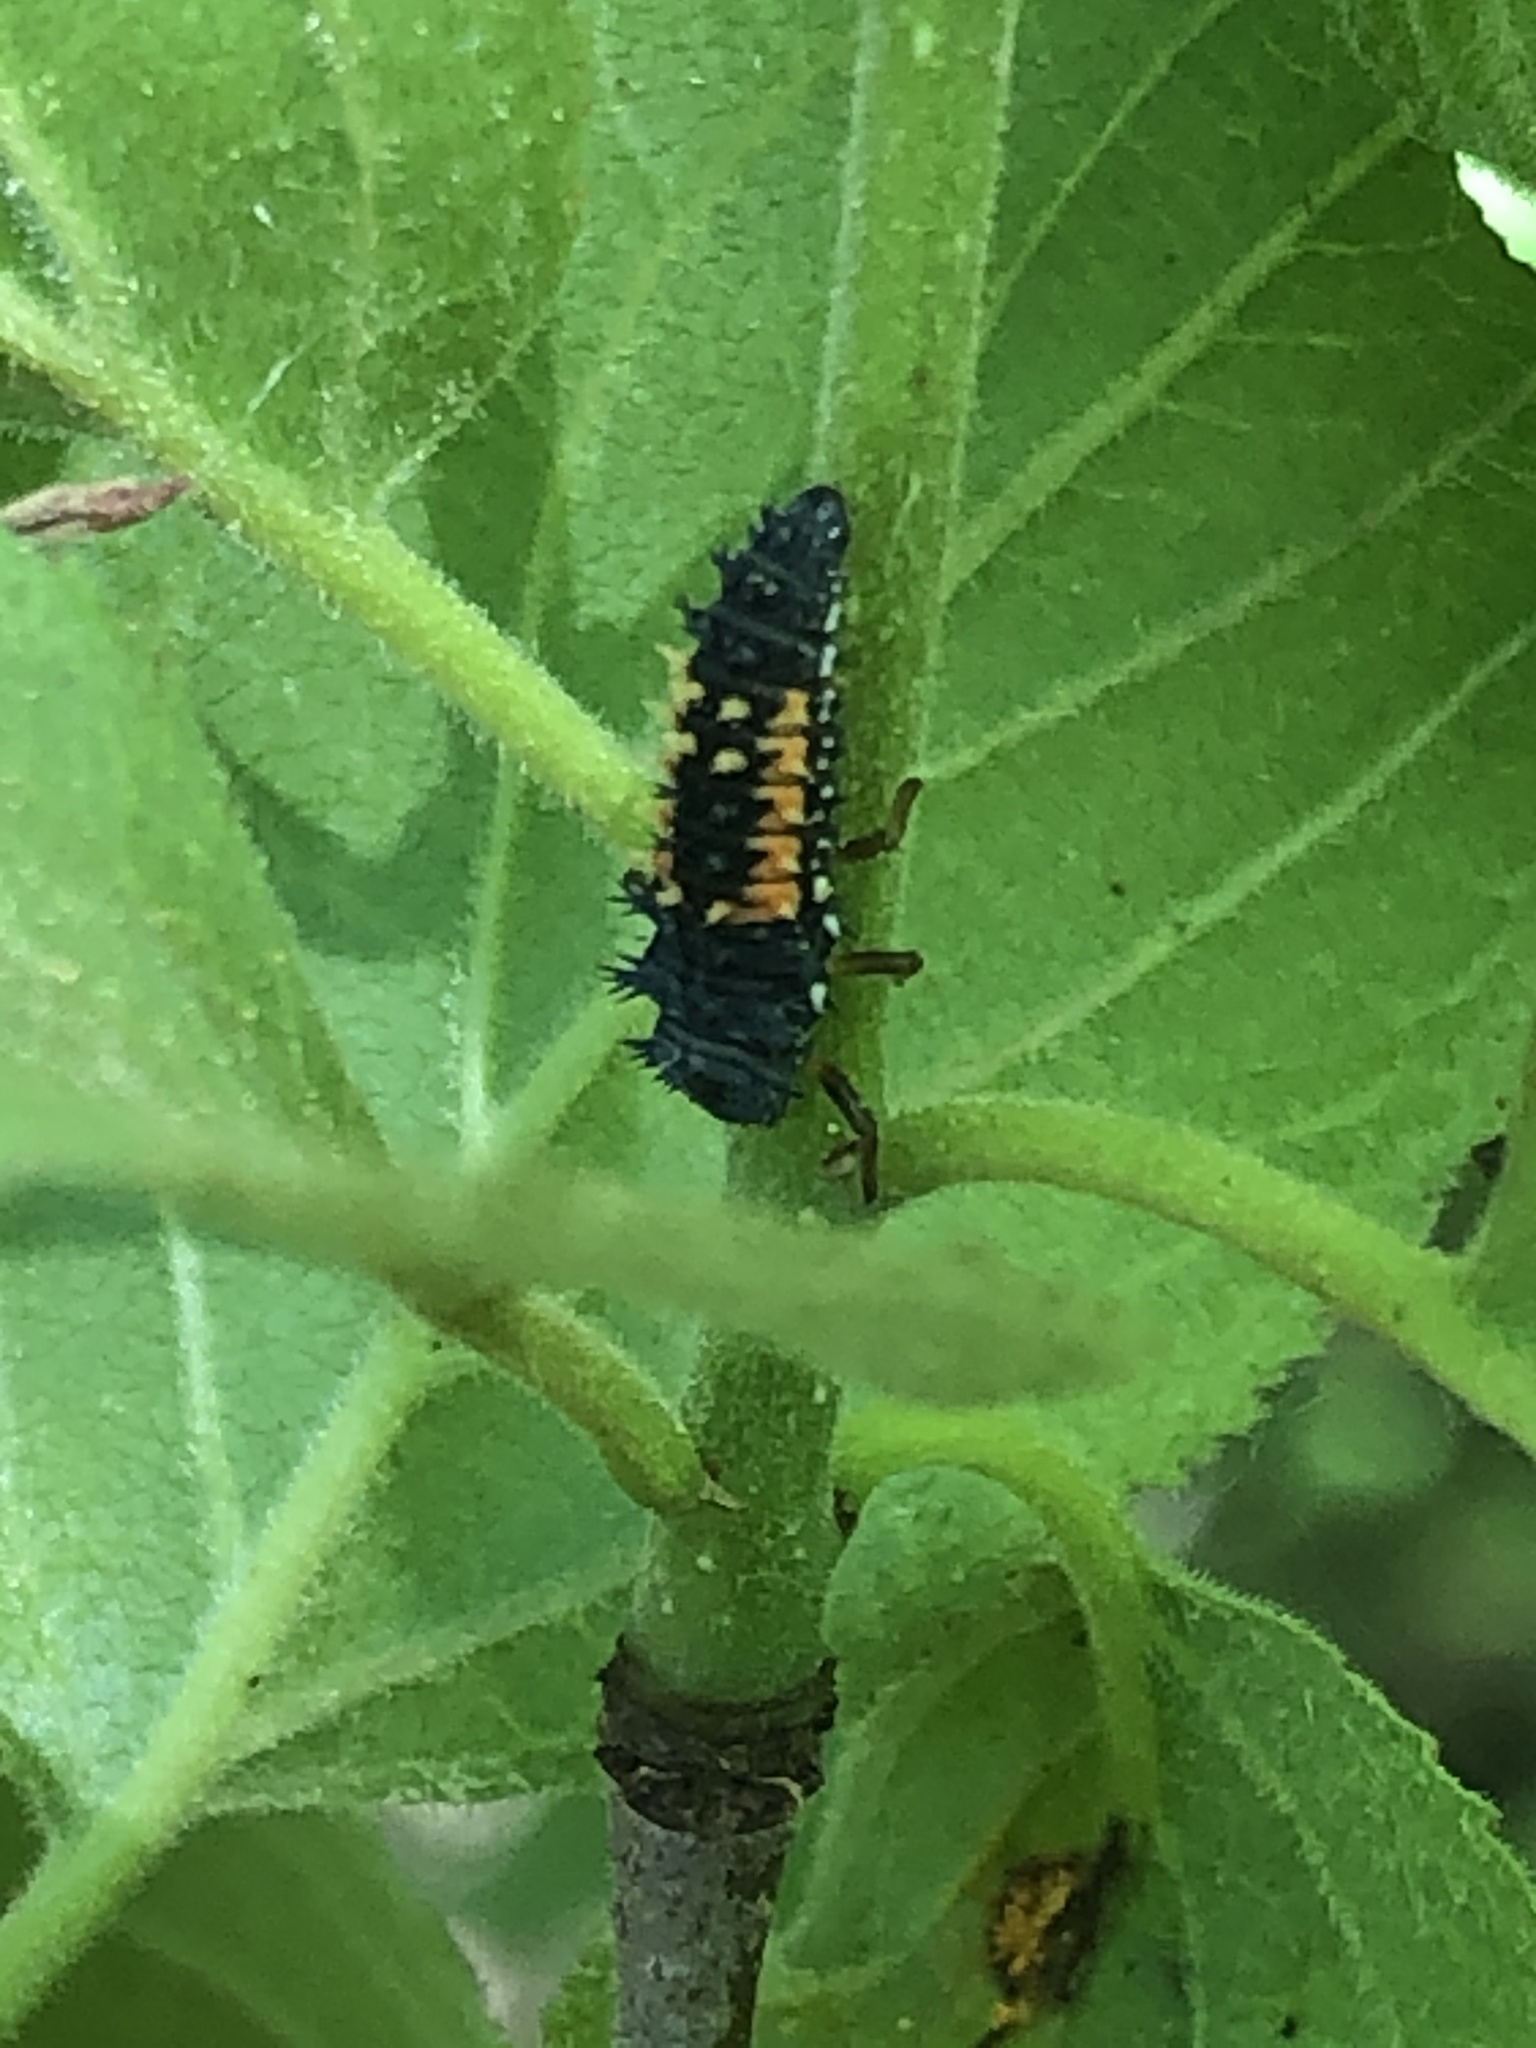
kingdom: Animalia
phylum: Arthropoda
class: Insecta
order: Coleoptera
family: Coccinellidae
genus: Harmonia
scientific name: Harmonia axyridis
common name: Harlequin ladybird
